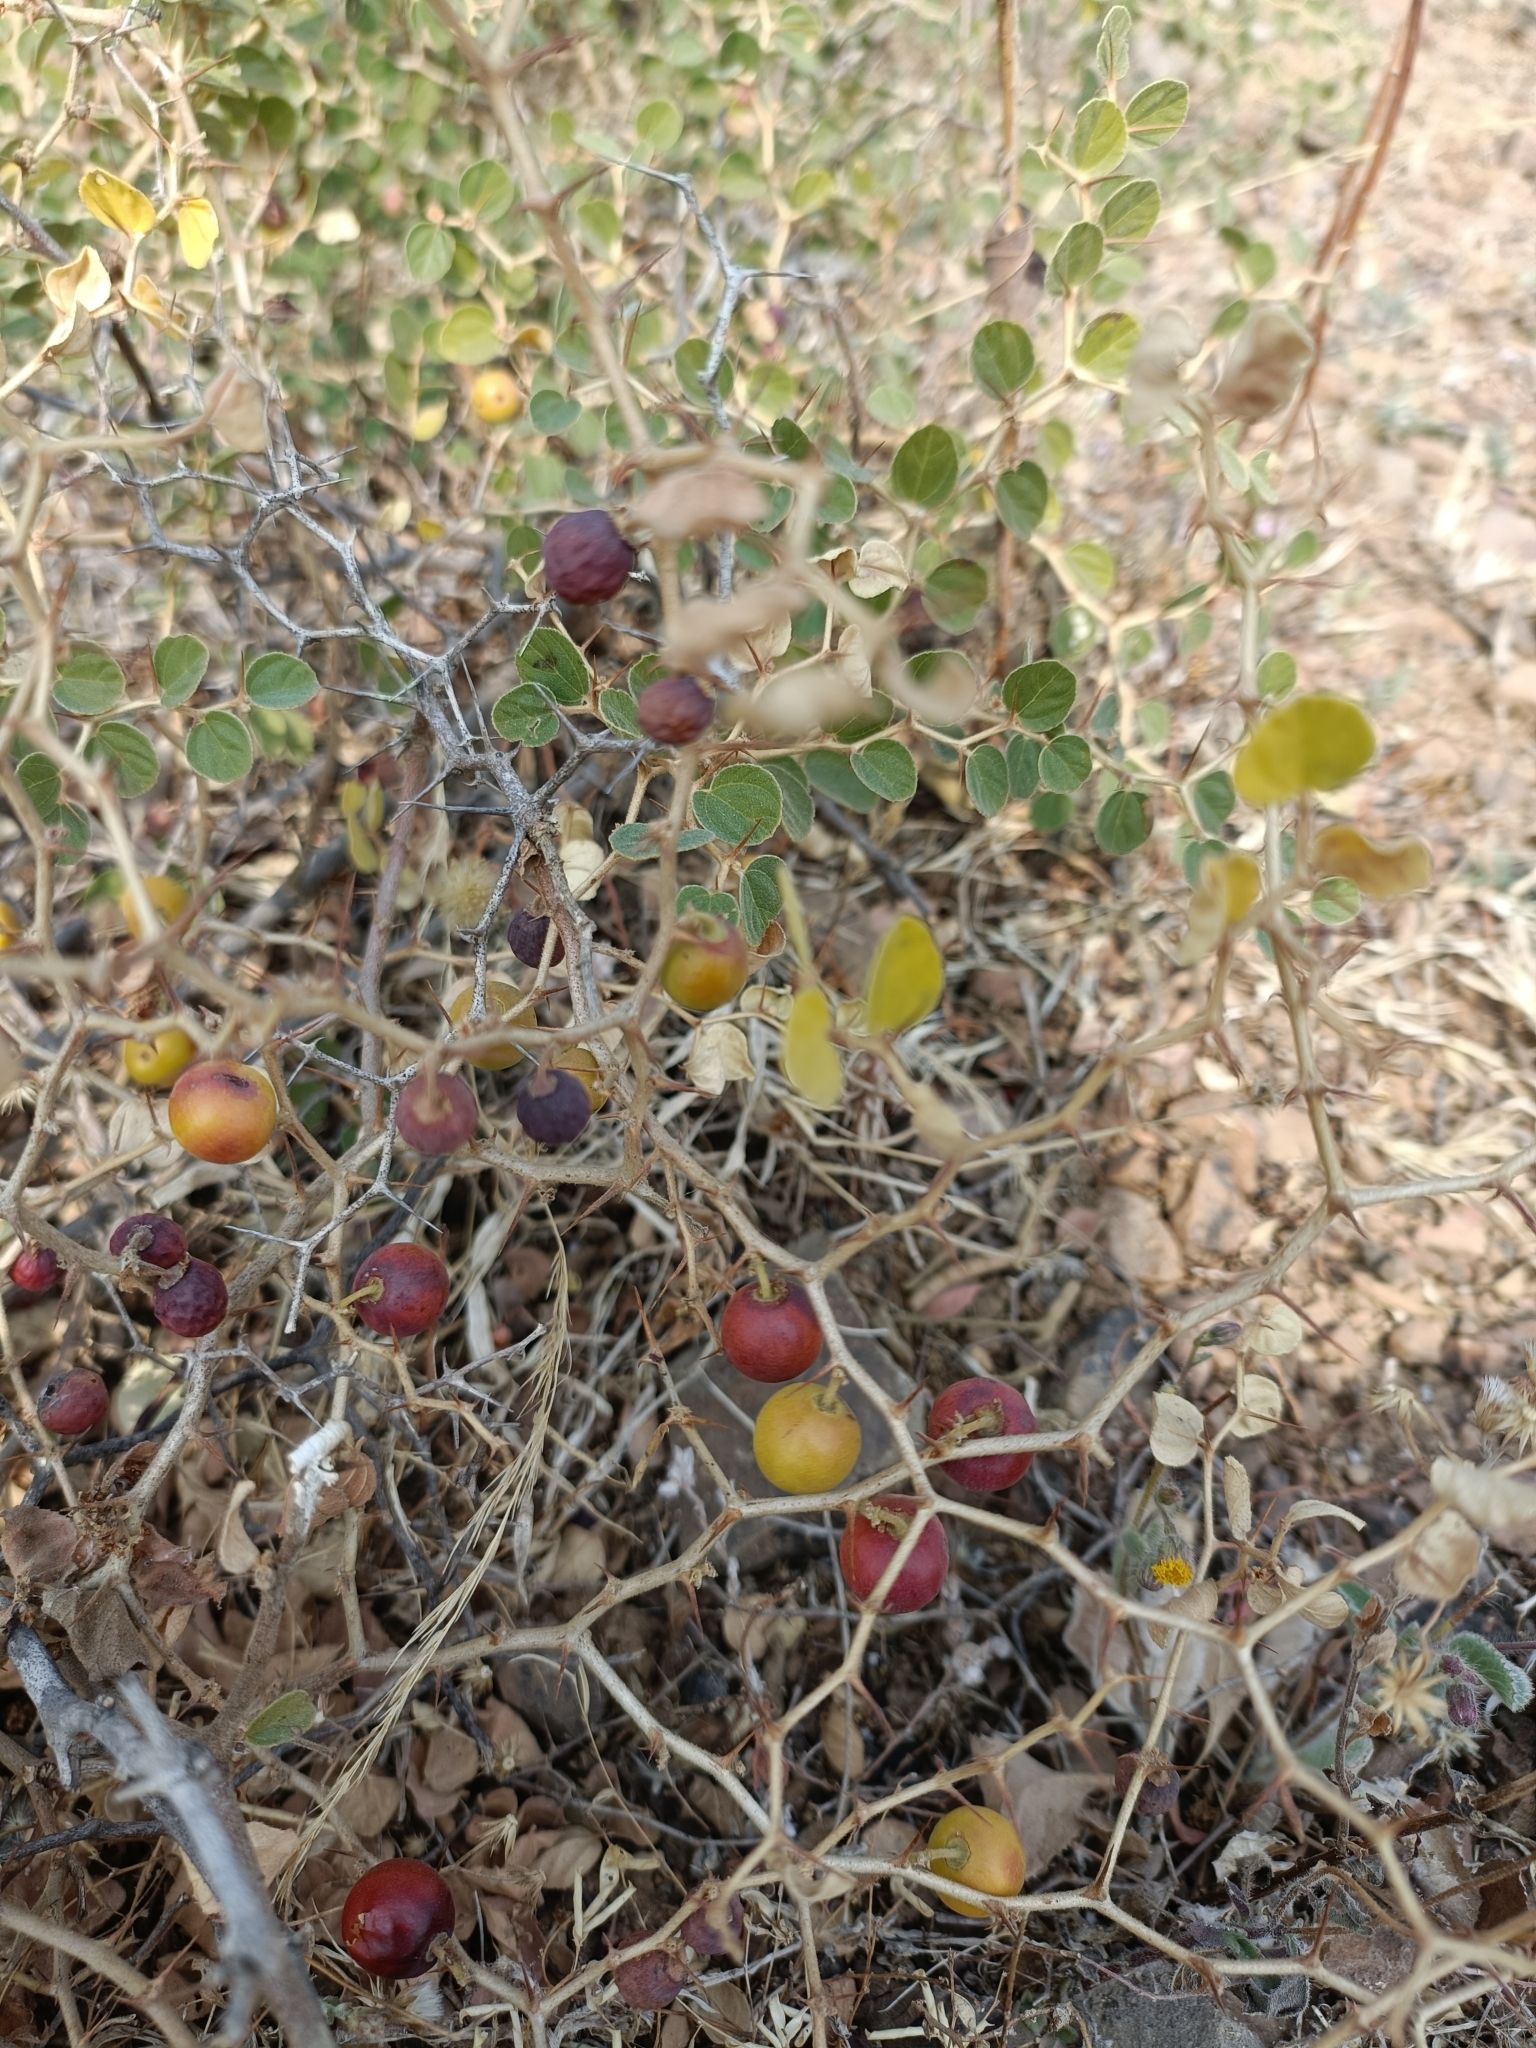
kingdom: Plantae
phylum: Tracheophyta
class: Magnoliopsida
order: Rosales
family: Rhamnaceae
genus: Ziziphus
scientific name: Ziziphus nummularia
